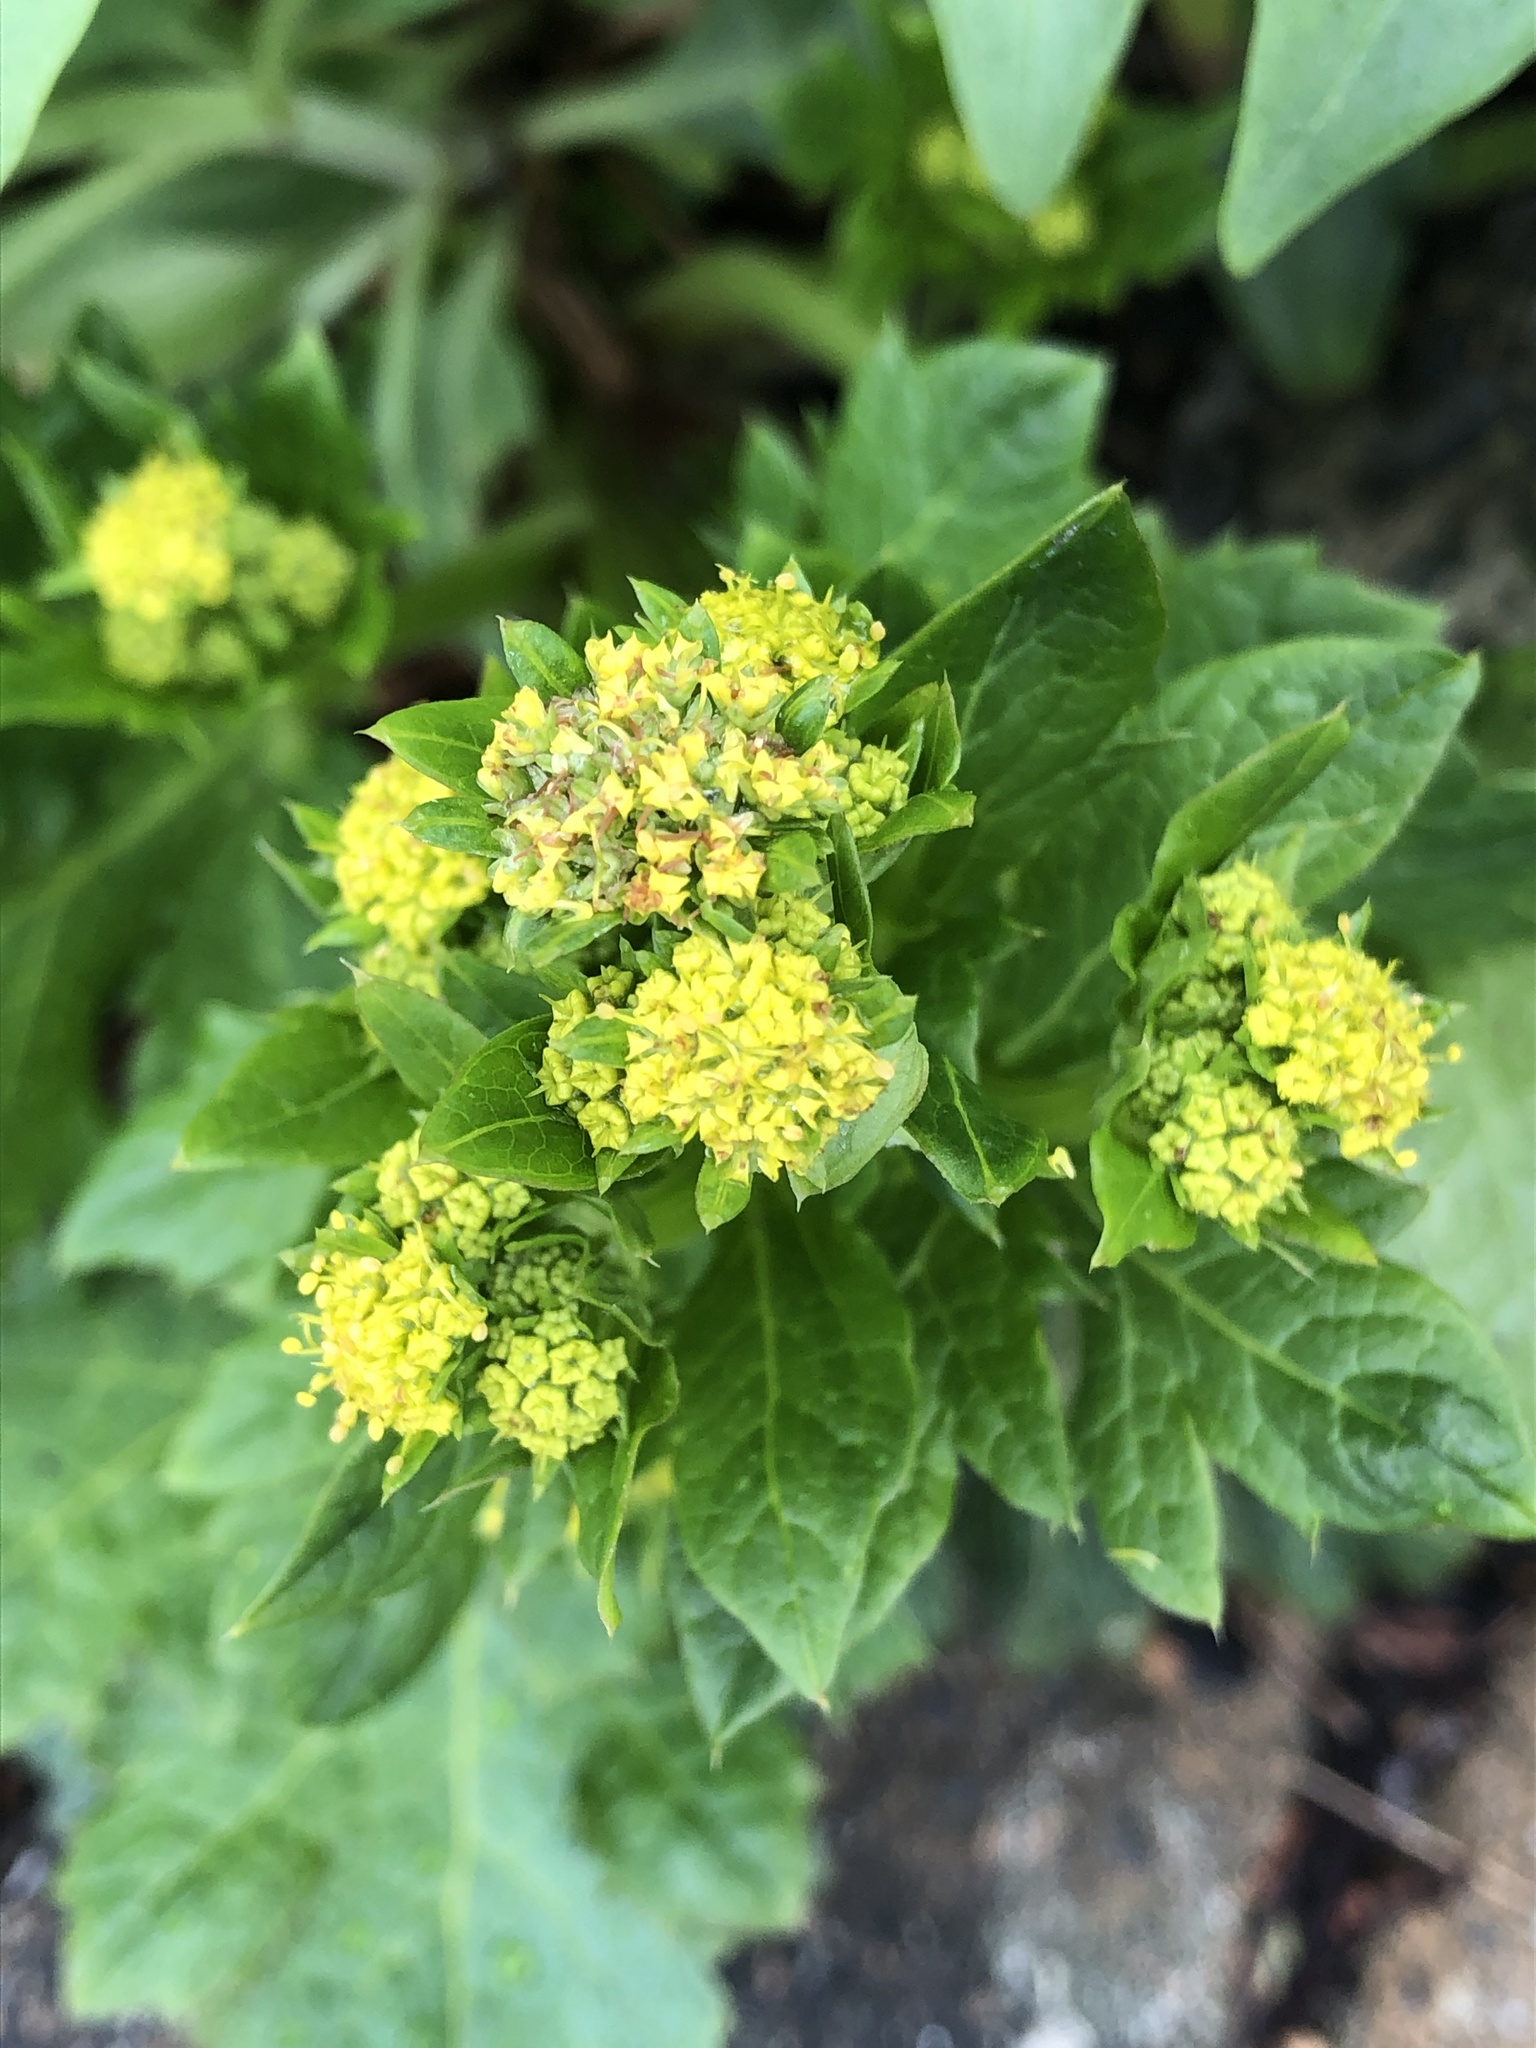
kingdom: Plantae
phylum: Tracheophyta
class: Magnoliopsida
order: Apiales
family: Apiaceae
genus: Sanicula
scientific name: Sanicula crassicaulis
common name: Western snakeroot
